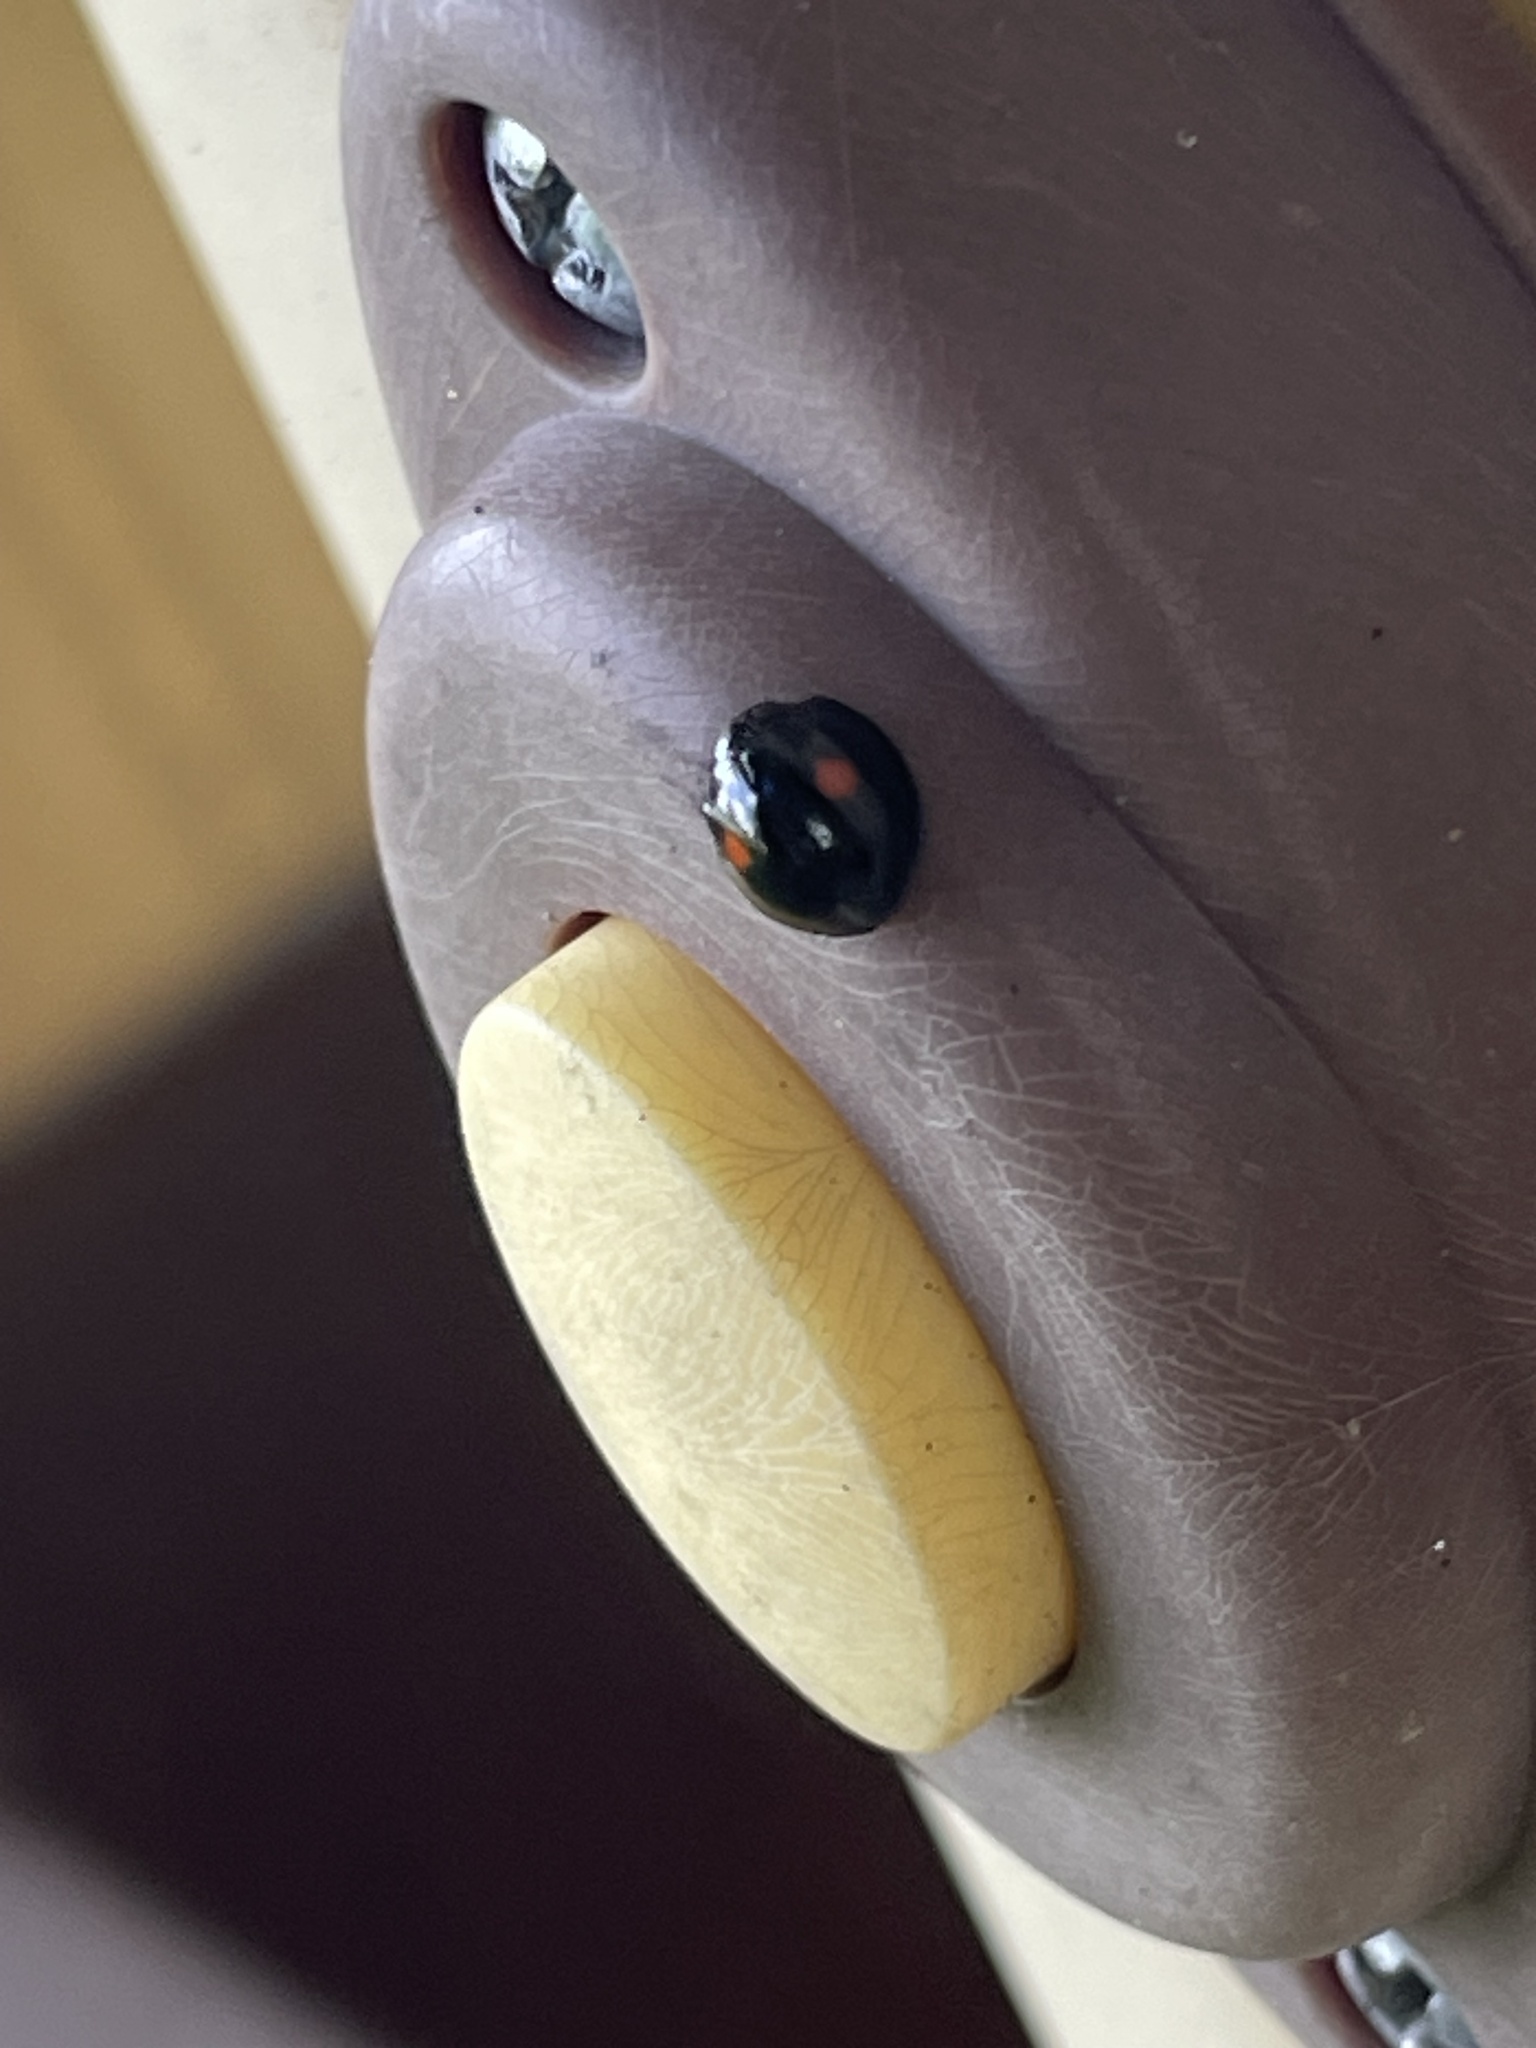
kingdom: Animalia
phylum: Arthropoda
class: Insecta
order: Coleoptera
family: Coccinellidae
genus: Chilocorus
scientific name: Chilocorus stigma
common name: Twicestabbed lady beetle
